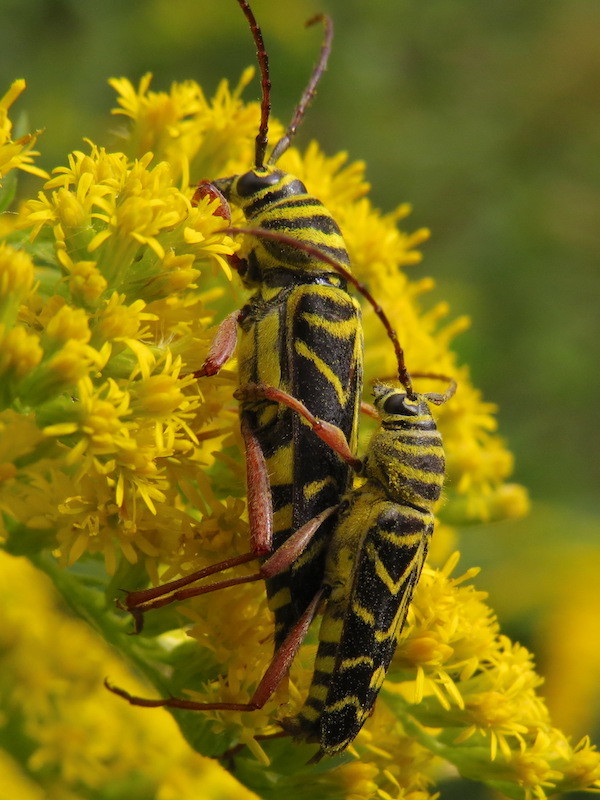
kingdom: Animalia
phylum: Arthropoda
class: Insecta
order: Coleoptera
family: Cerambycidae
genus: Megacyllene
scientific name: Megacyllene robiniae
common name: Locust borer
